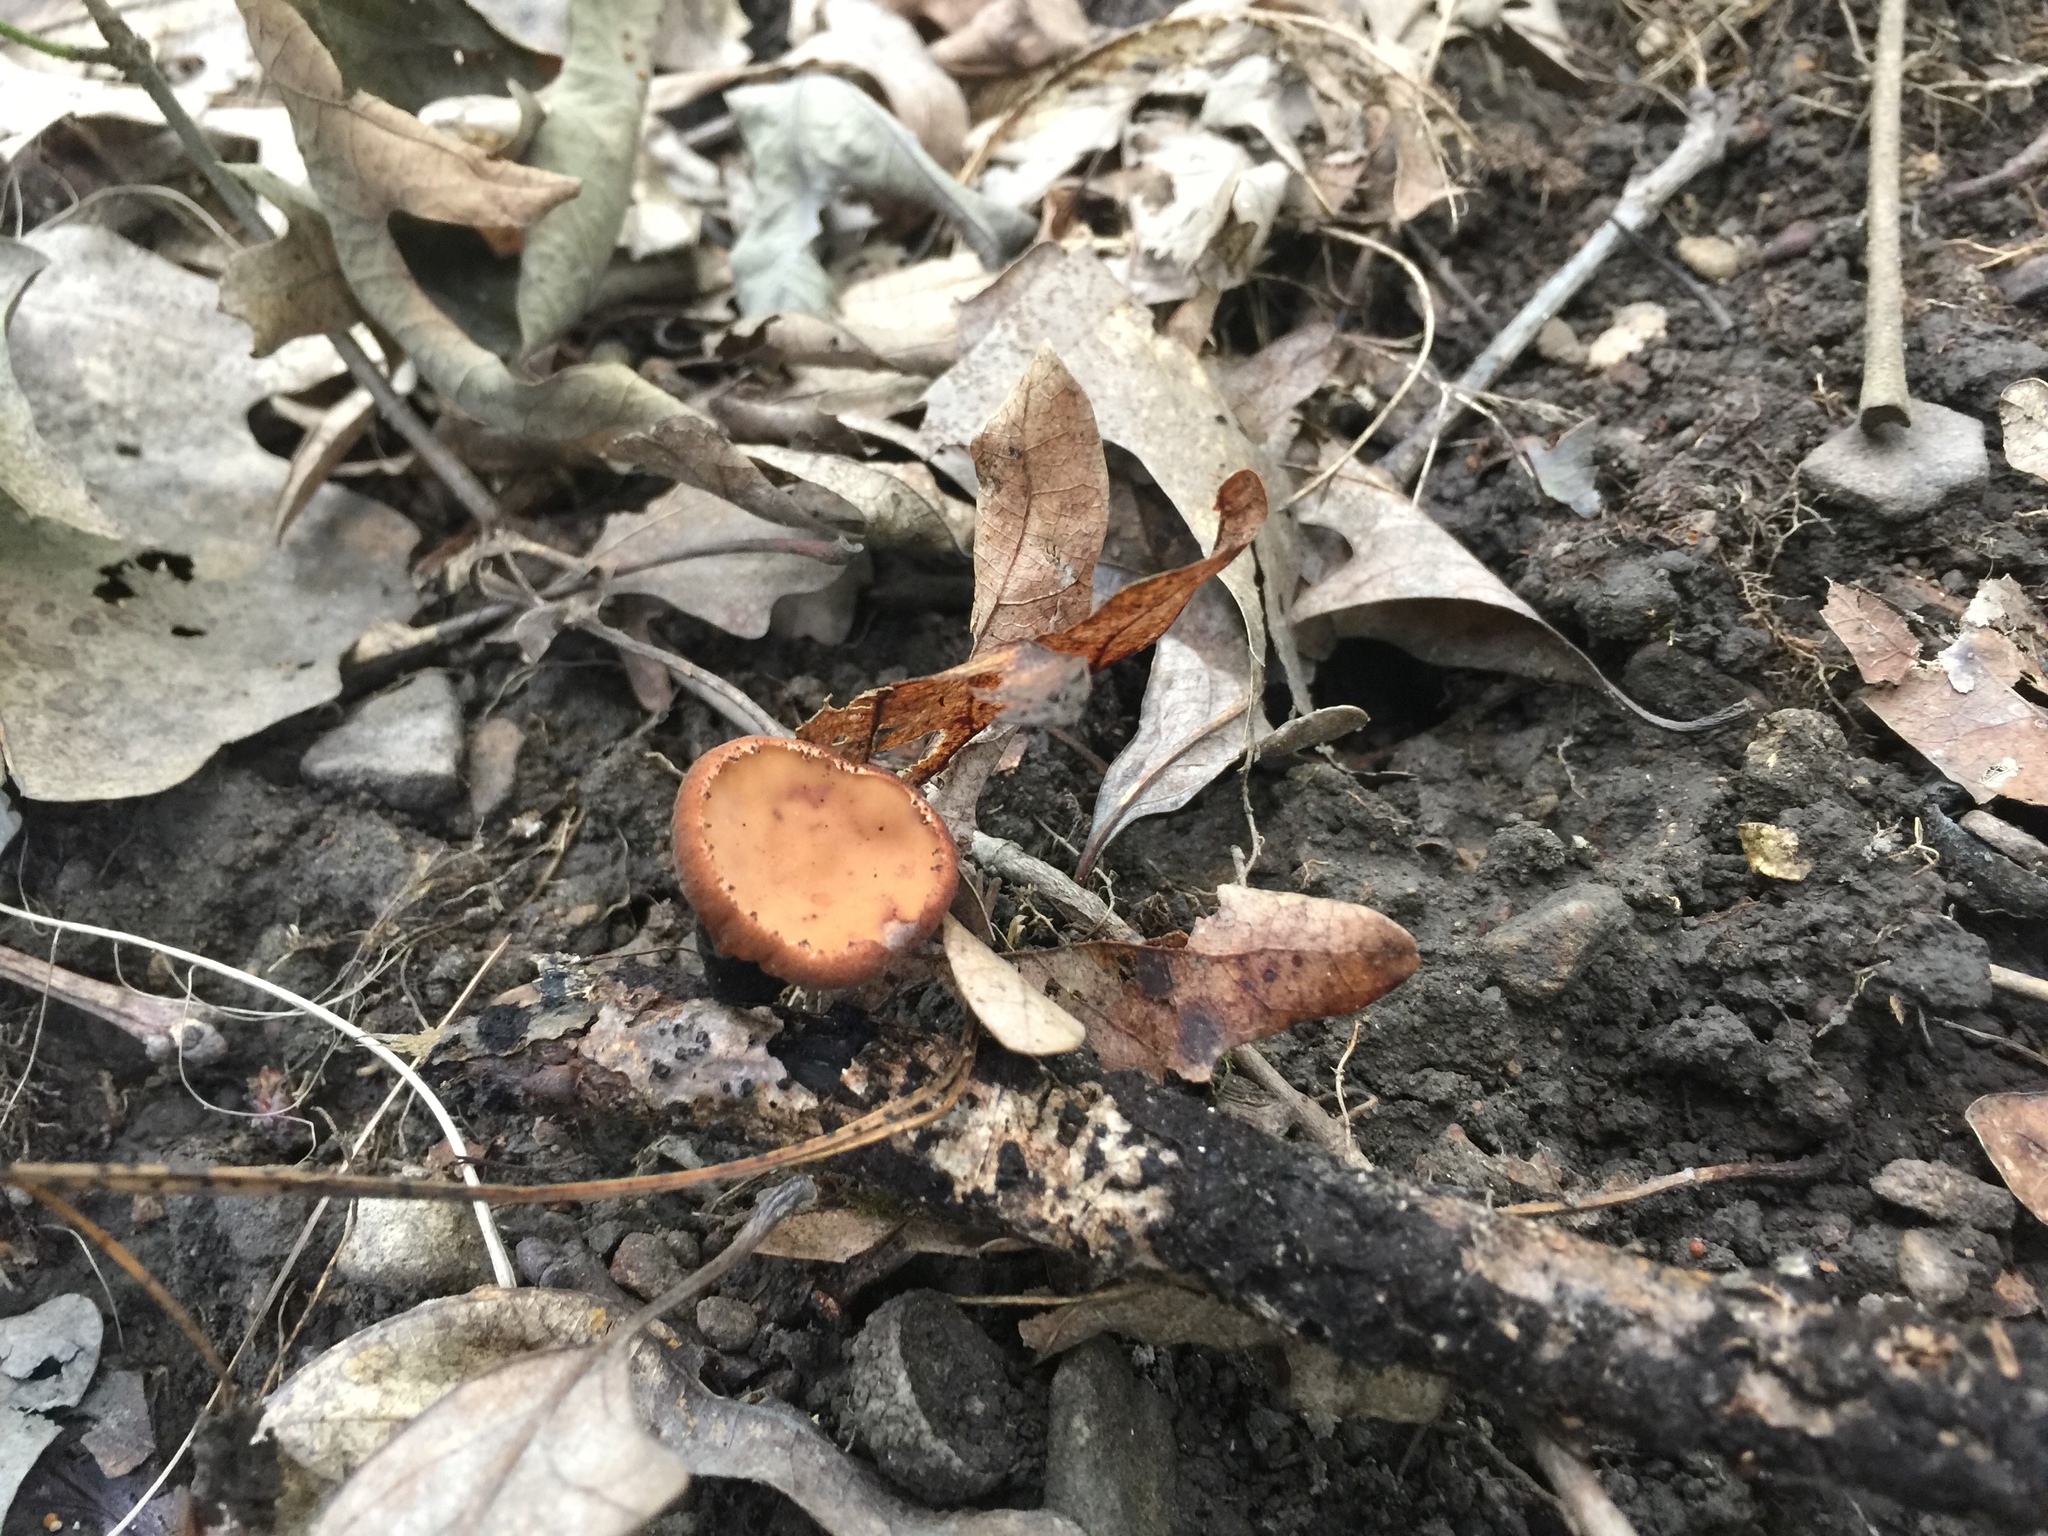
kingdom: Fungi
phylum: Ascomycota
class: Pezizomycetes
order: Pezizales
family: Sarcosomataceae
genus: Galiella
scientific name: Galiella rufa
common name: Hairy rubber cup
